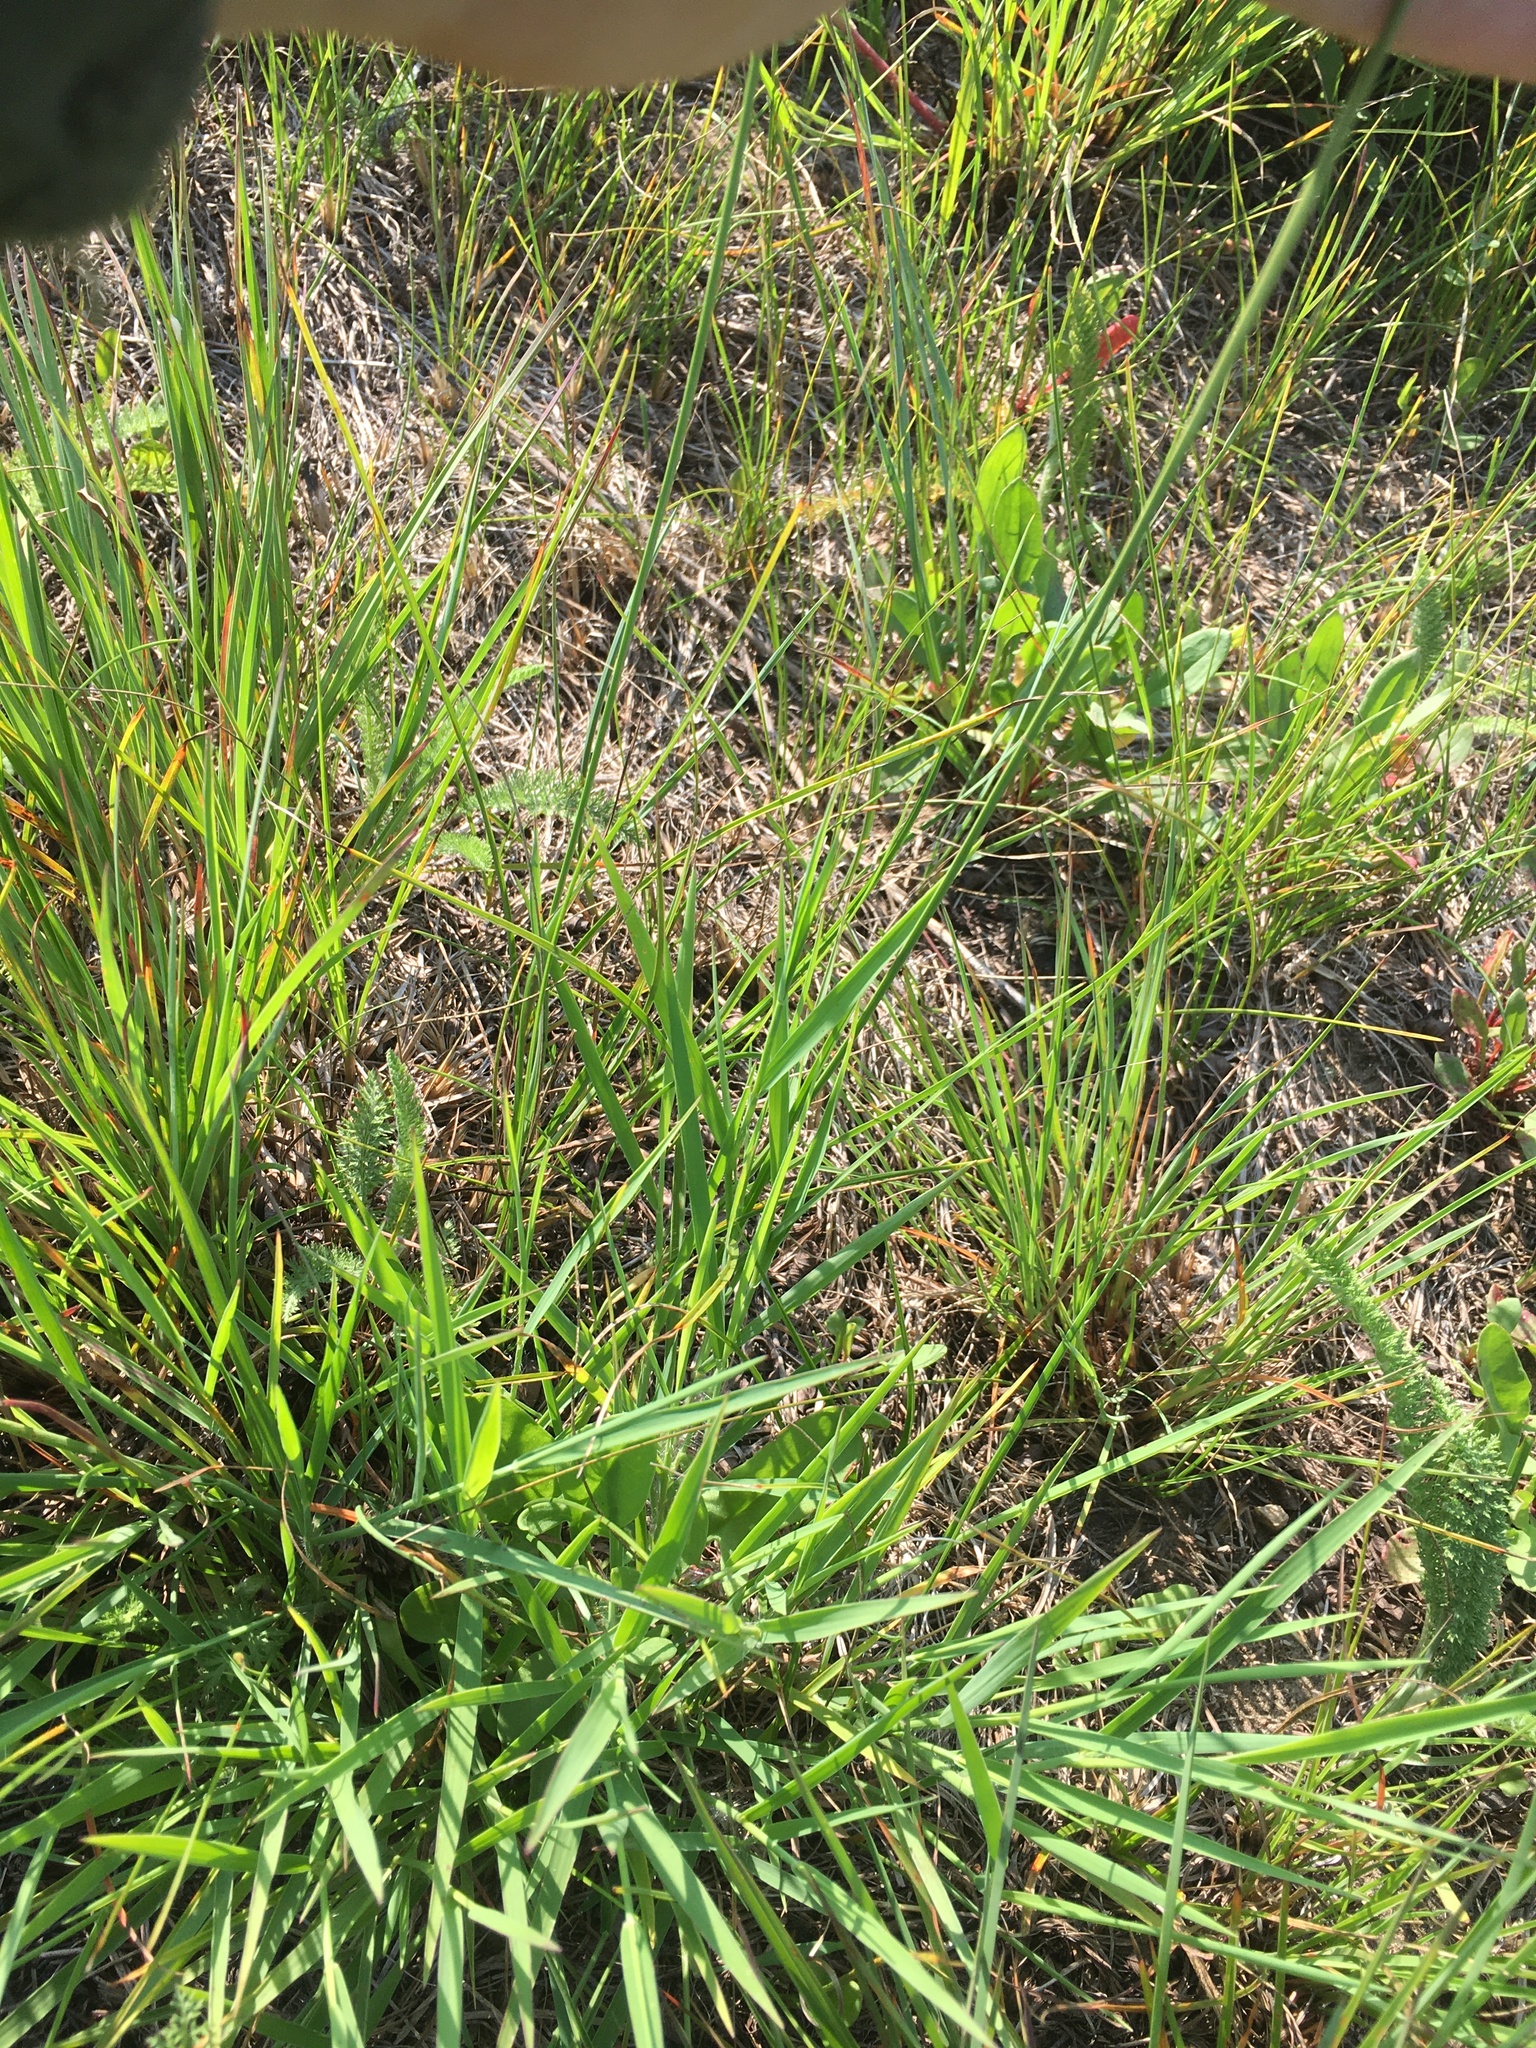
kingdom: Plantae
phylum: Tracheophyta
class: Liliopsida
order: Poales
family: Cyperaceae
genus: Cyperus
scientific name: Cyperus schweinitzii
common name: Schweinitz's cyperus
